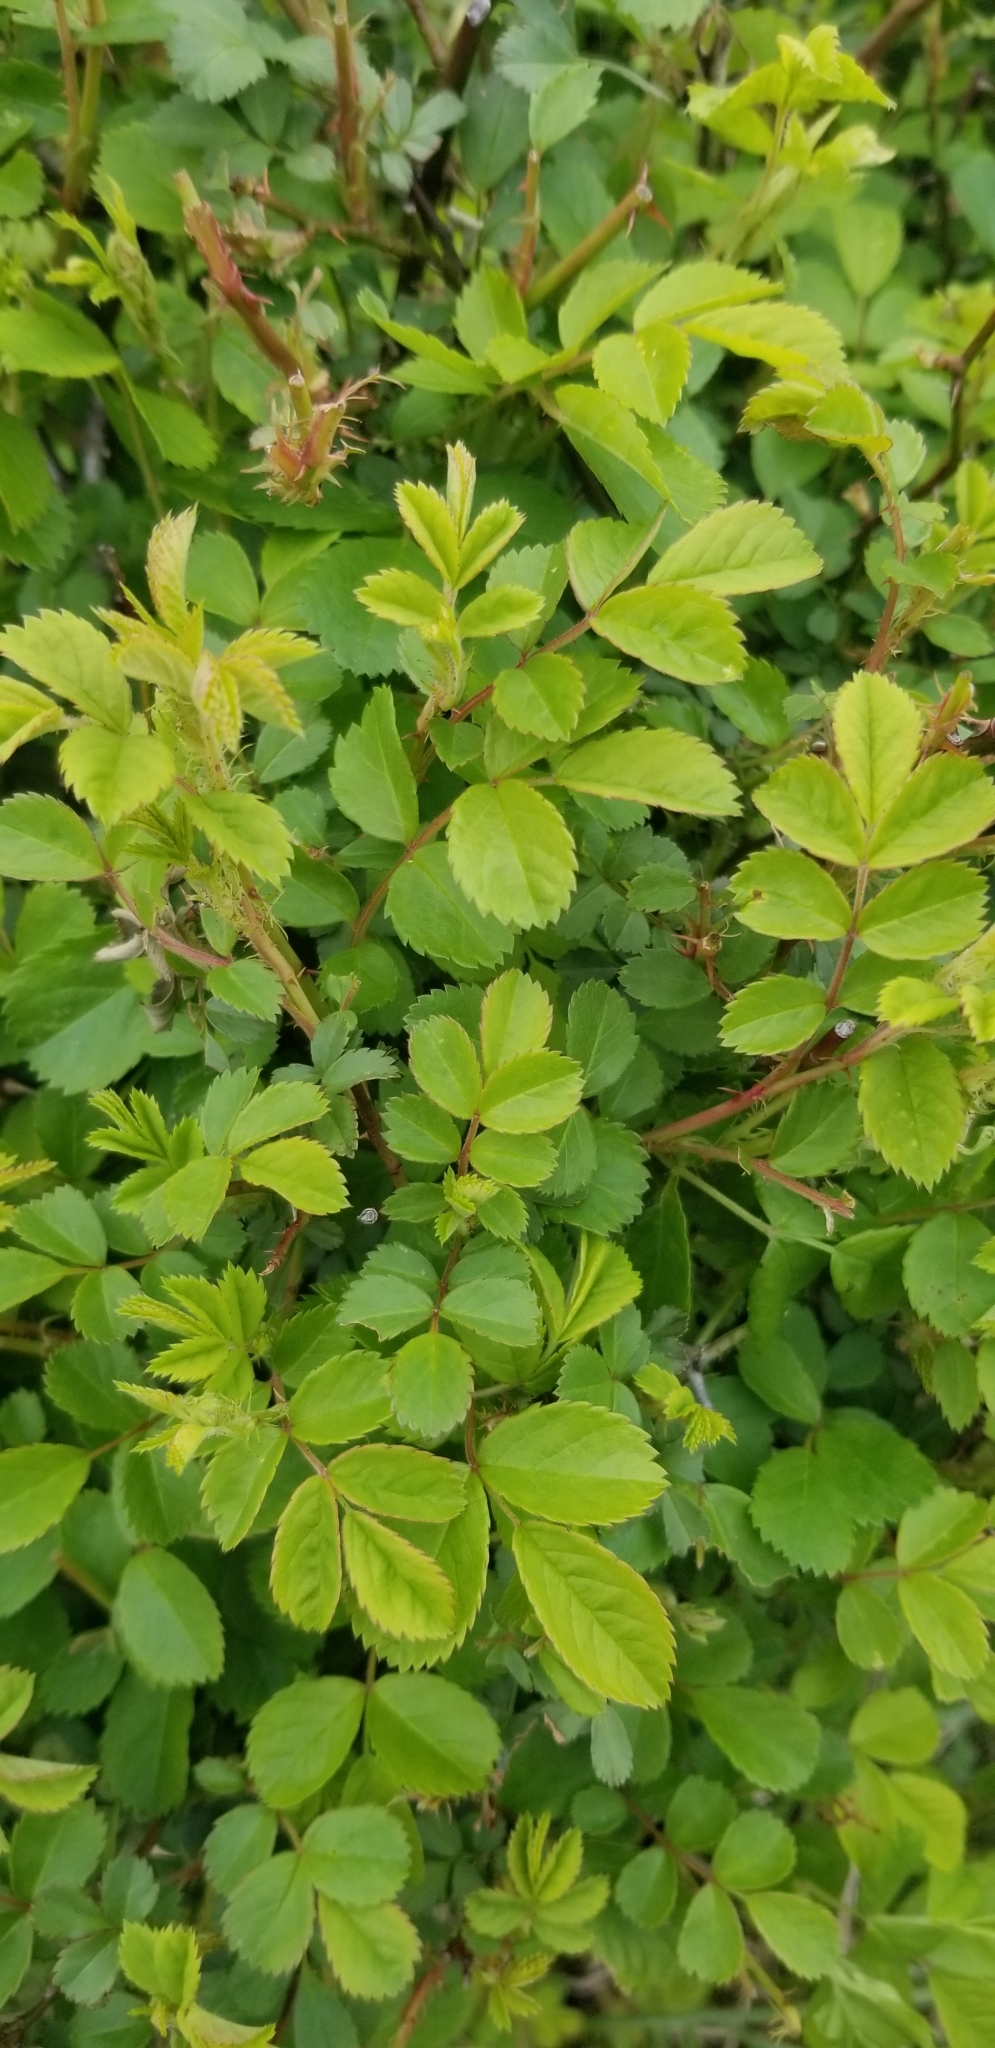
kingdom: Plantae
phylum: Tracheophyta
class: Magnoliopsida
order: Rosales
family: Rosaceae
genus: Rosa
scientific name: Rosa multiflora
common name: Multiflora rose
